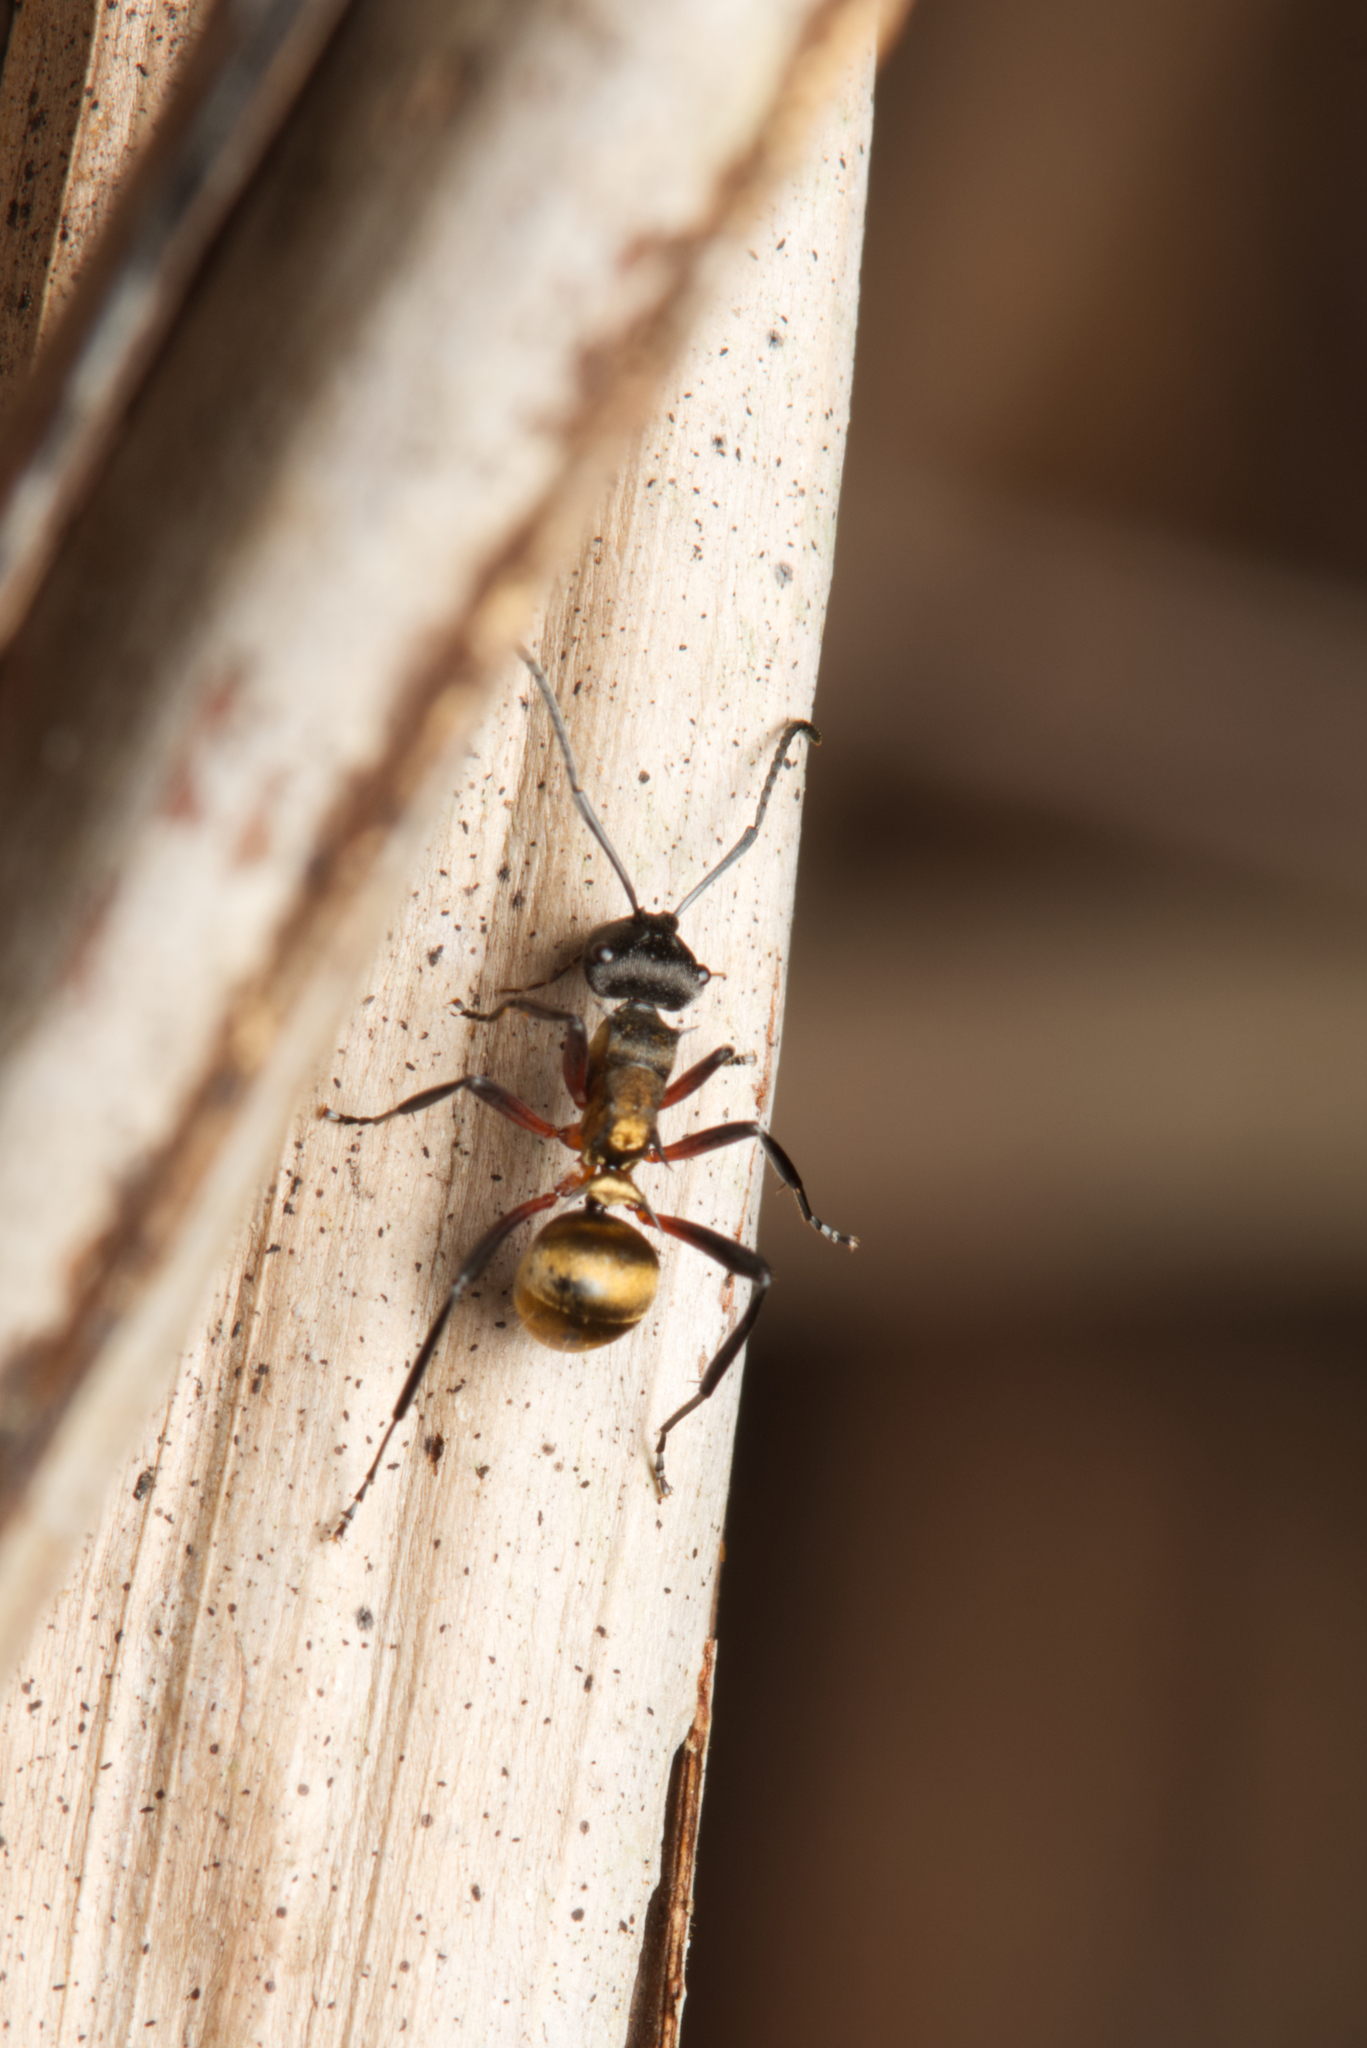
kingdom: Animalia
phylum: Arthropoda
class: Insecta
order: Hymenoptera
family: Formicidae
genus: Polyrhachis
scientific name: Polyrhachis rufifemur
